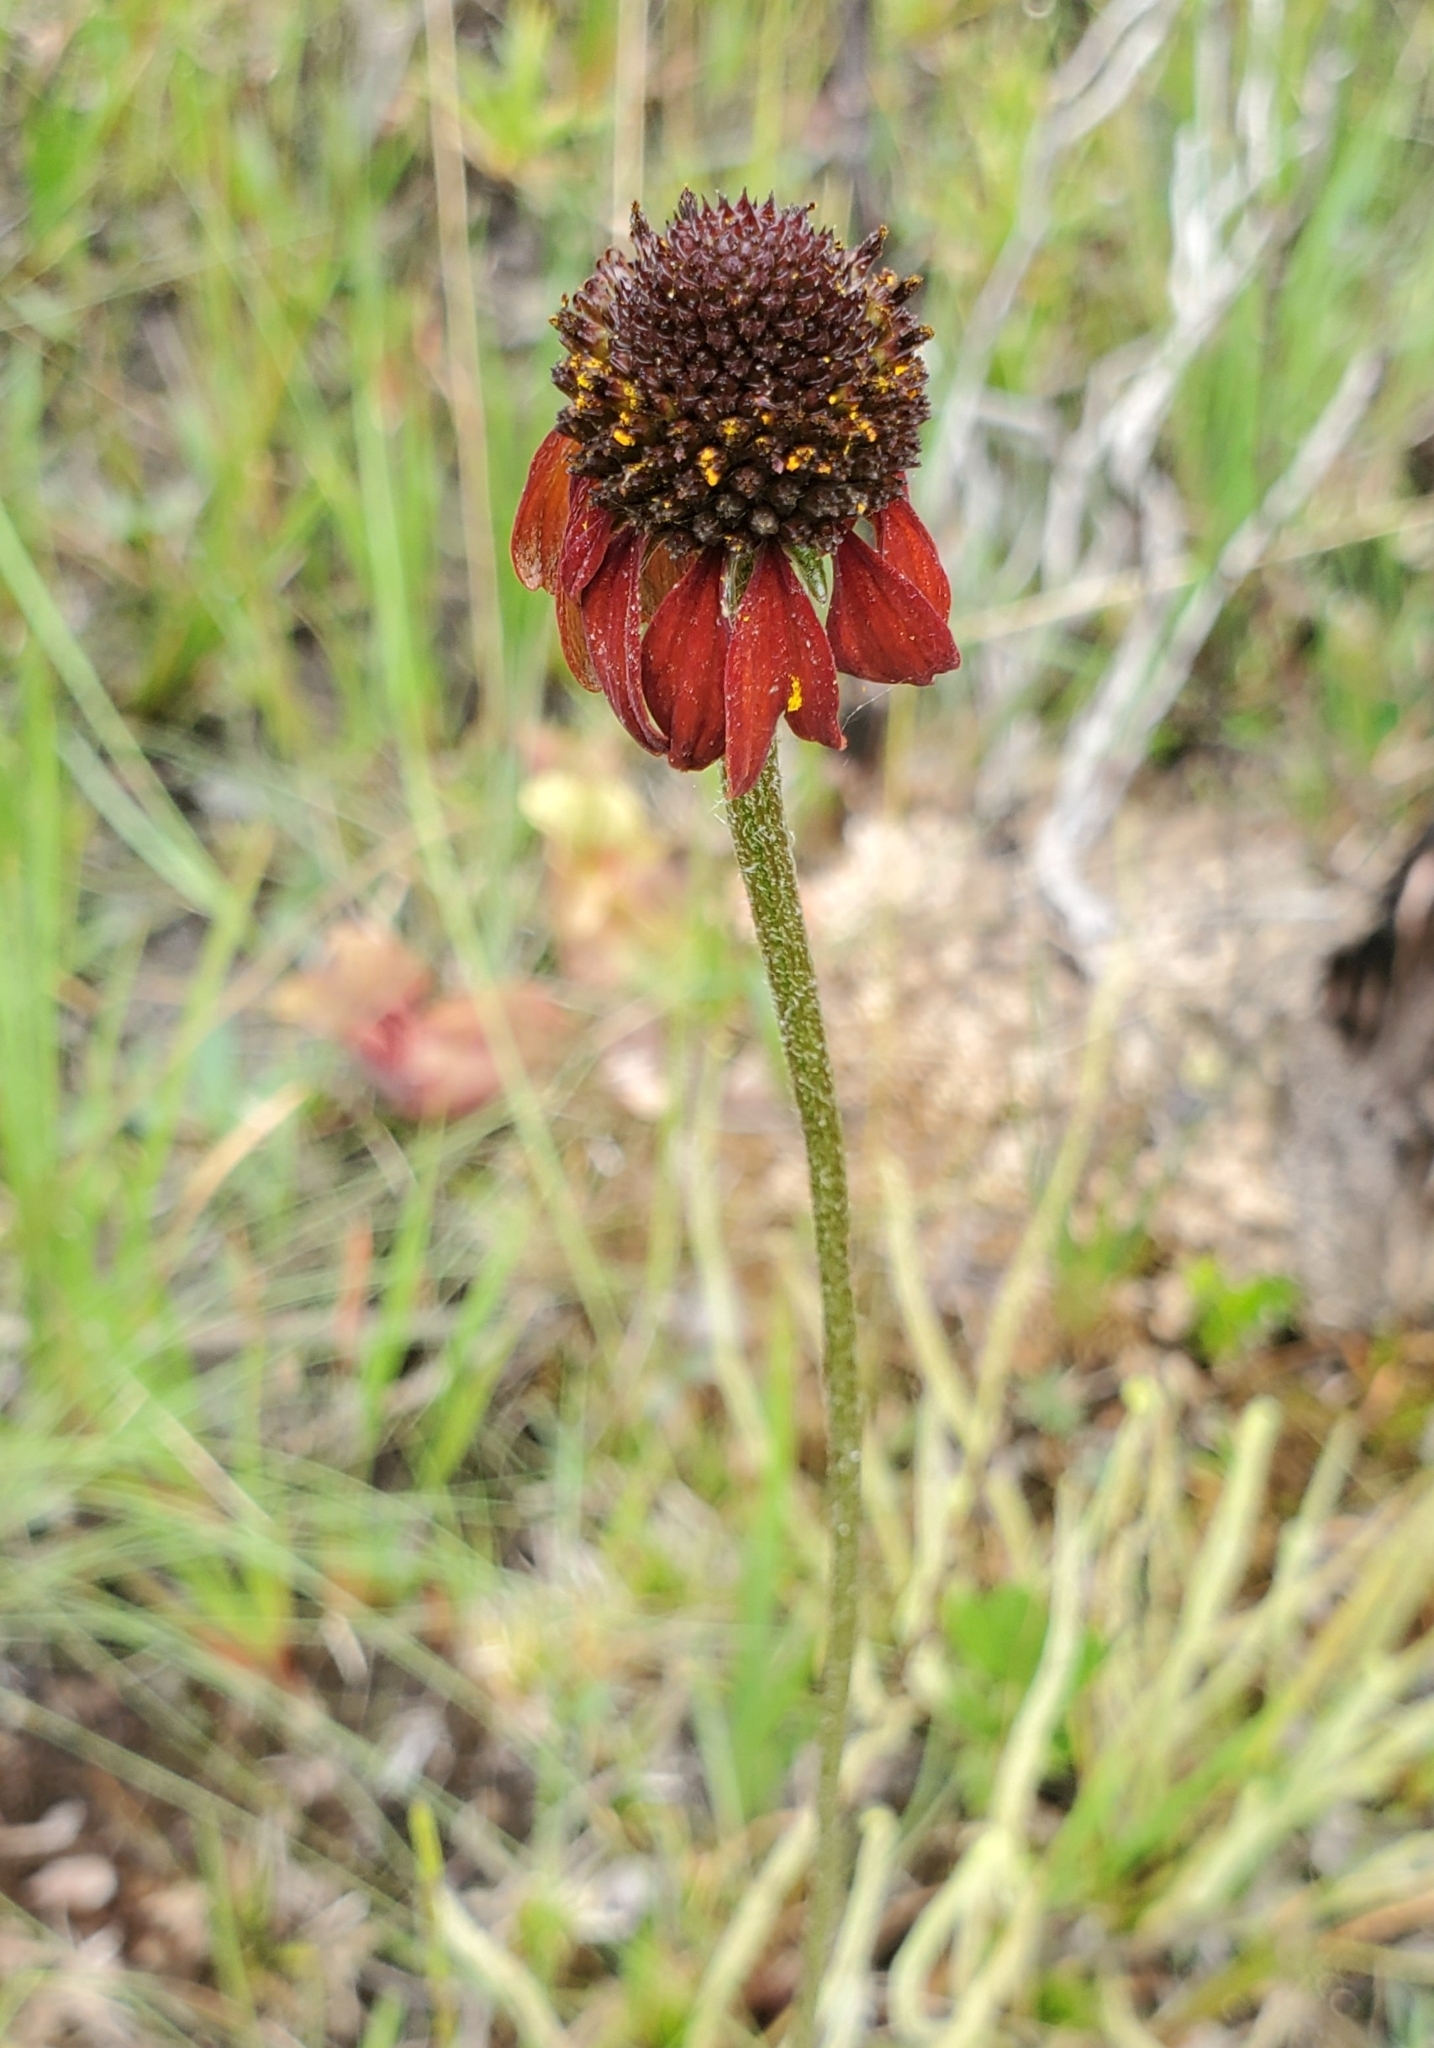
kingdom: Plantae
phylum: Tracheophyta
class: Magnoliopsida
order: Asterales
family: Asteraceae
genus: Rudbeckia
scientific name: Rudbeckia graminifolia
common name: Grass-leaf coneflower
